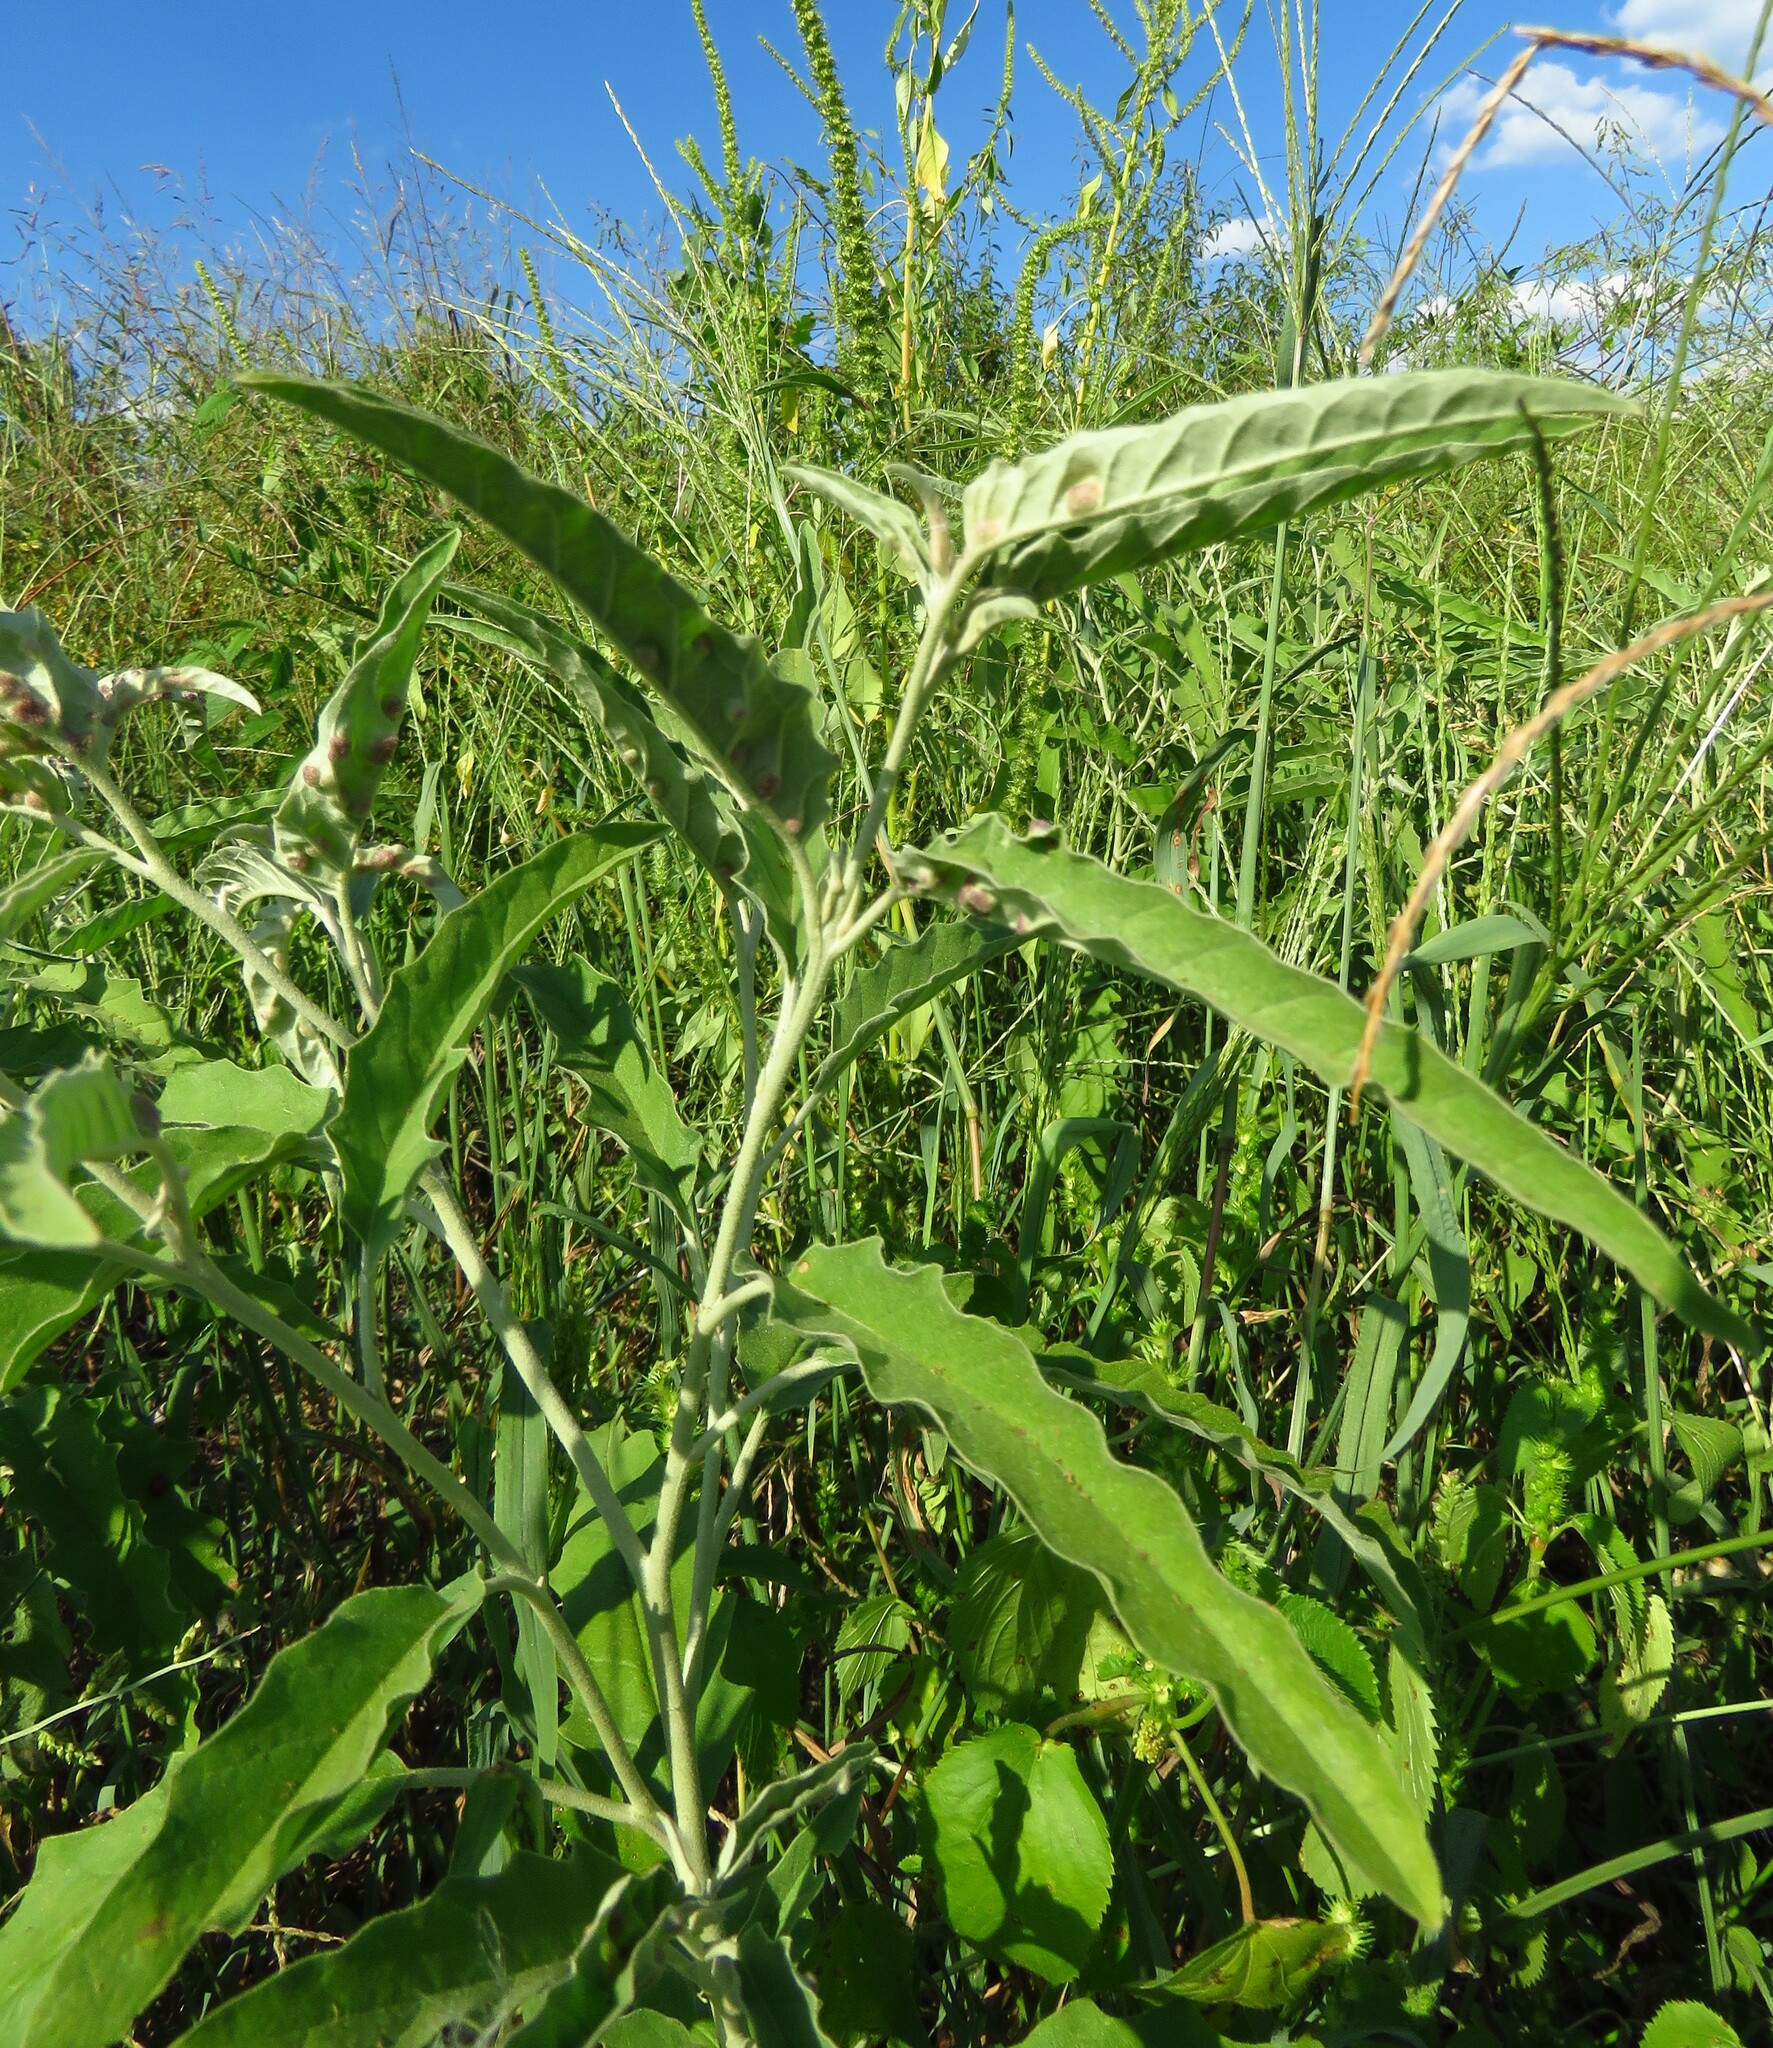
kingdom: Plantae
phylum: Tracheophyta
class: Magnoliopsida
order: Solanales
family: Solanaceae
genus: Solanum
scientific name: Solanum elaeagnifolium
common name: Silverleaf nightshade
